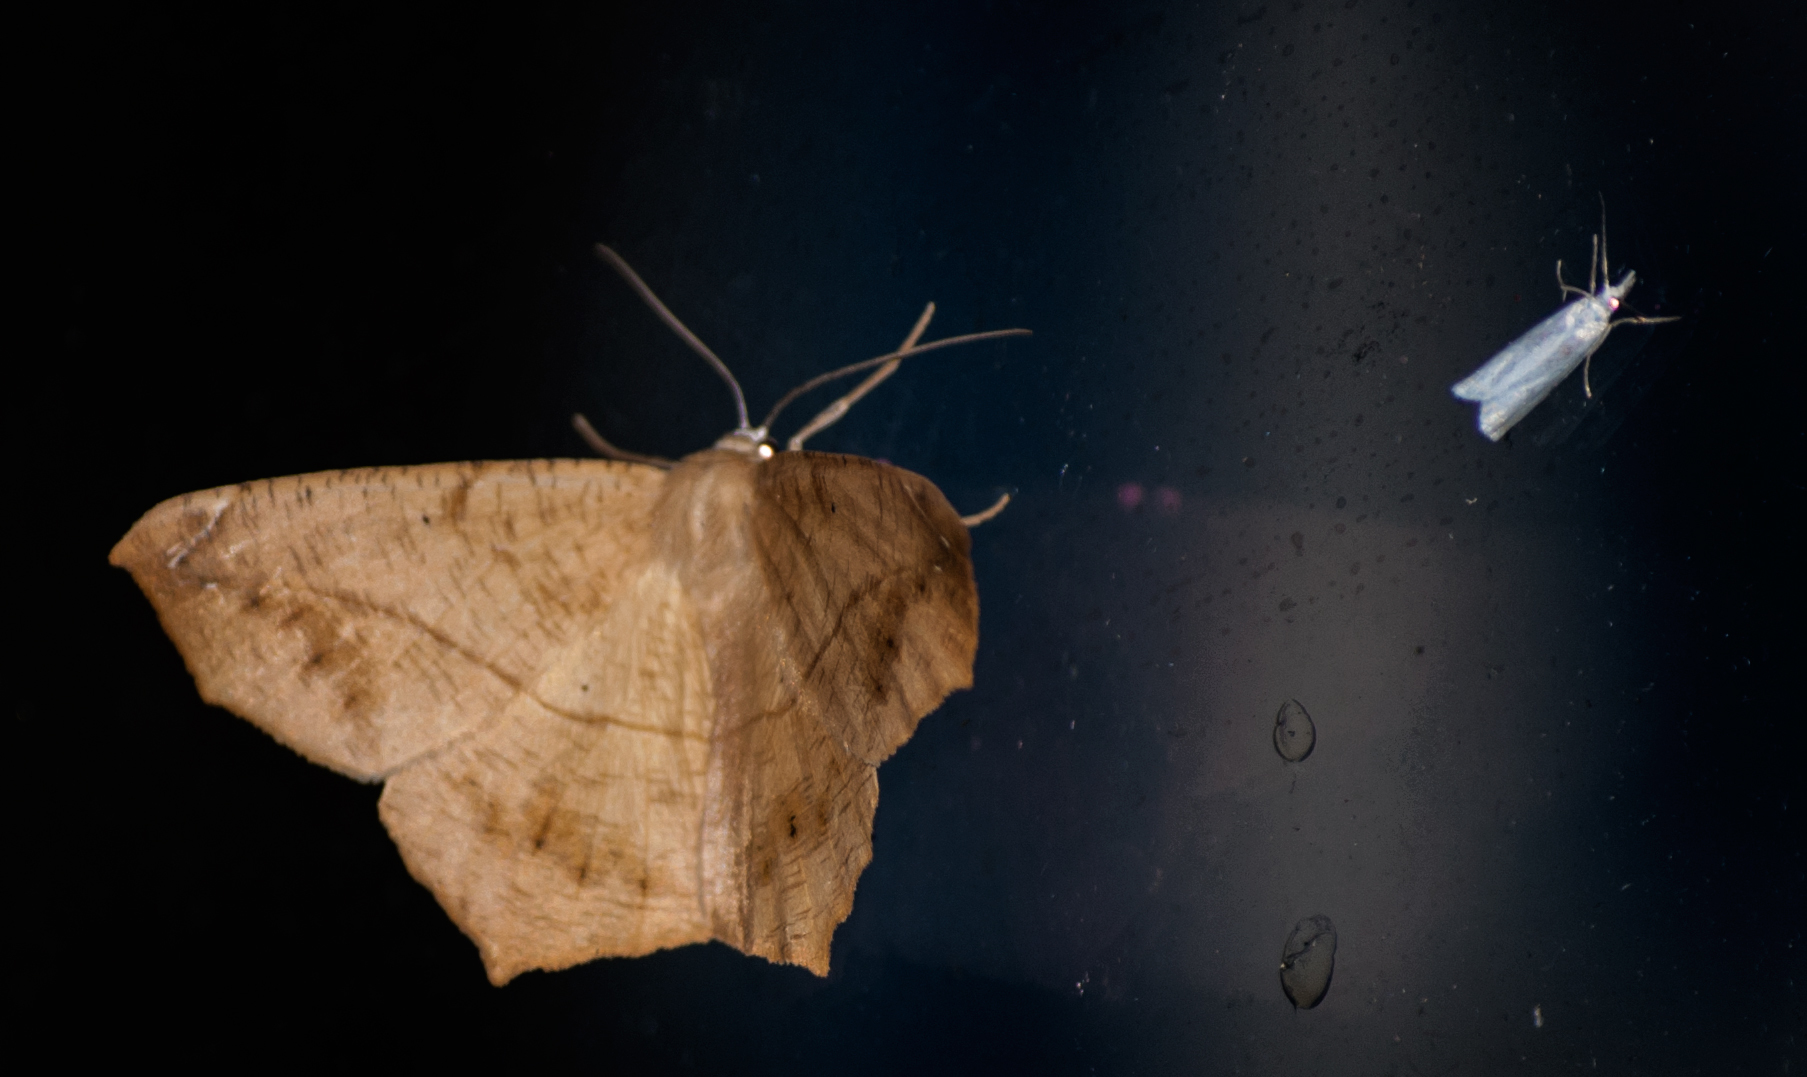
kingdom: Animalia
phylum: Arthropoda
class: Insecta
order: Lepidoptera
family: Geometridae
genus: Prochoerodes
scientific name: Prochoerodes lineola
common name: Large maple spanworm
